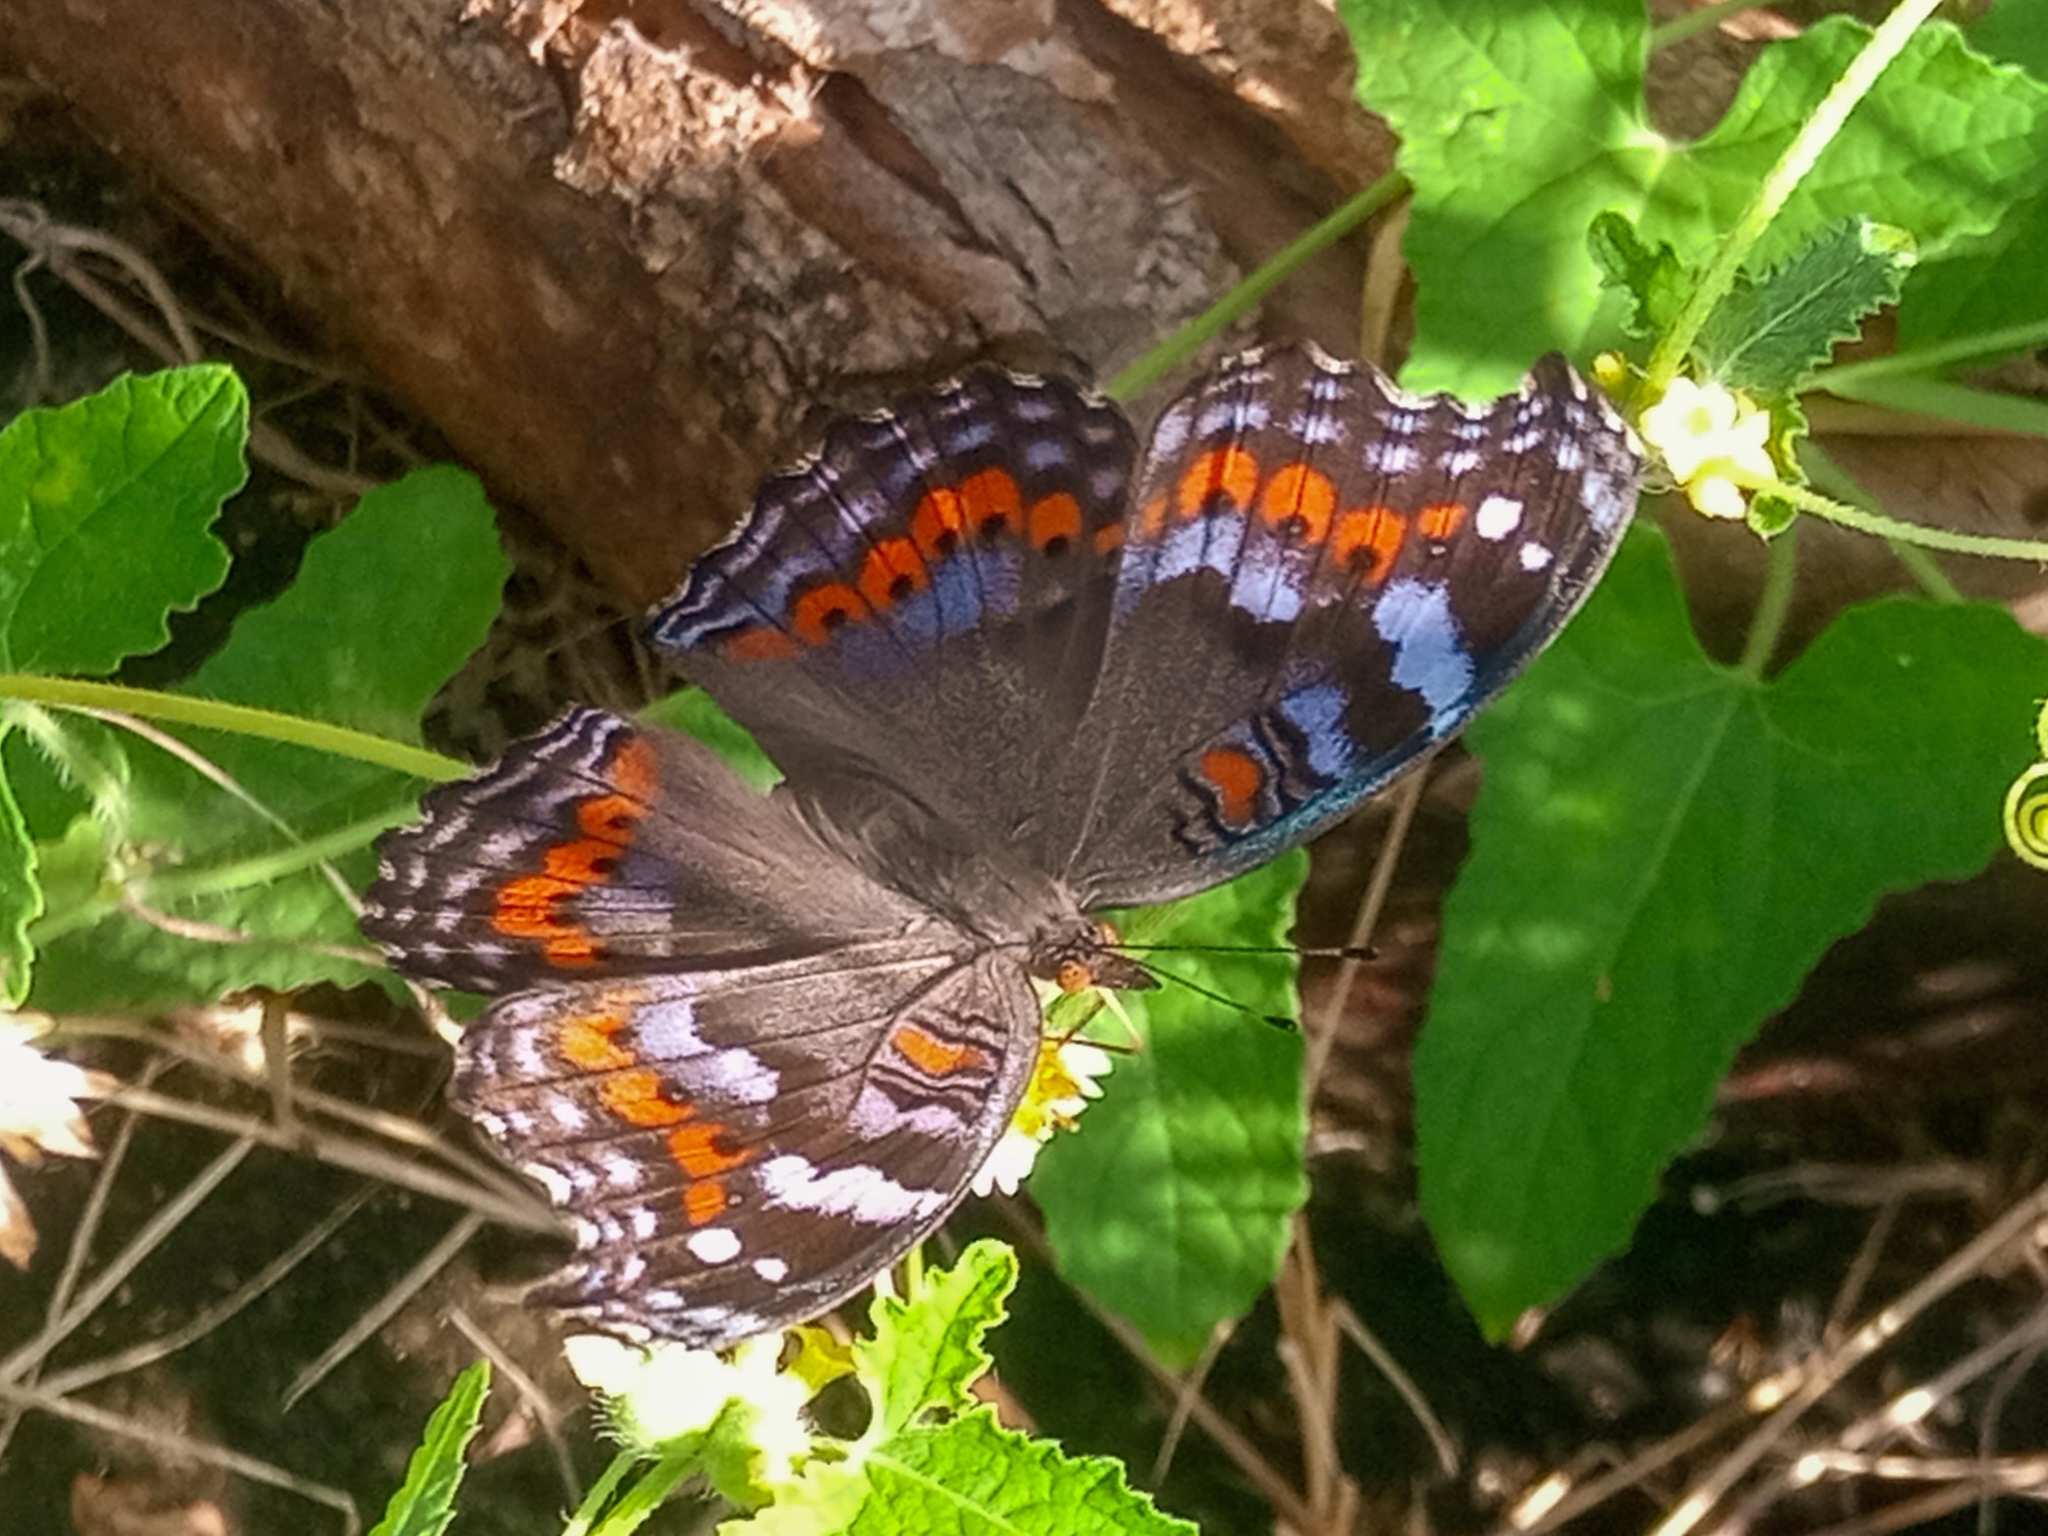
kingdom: Animalia
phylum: Arthropoda
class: Insecta
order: Lepidoptera
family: Nymphalidae
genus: Precis
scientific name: Precis octavia
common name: Gaudy commodore
